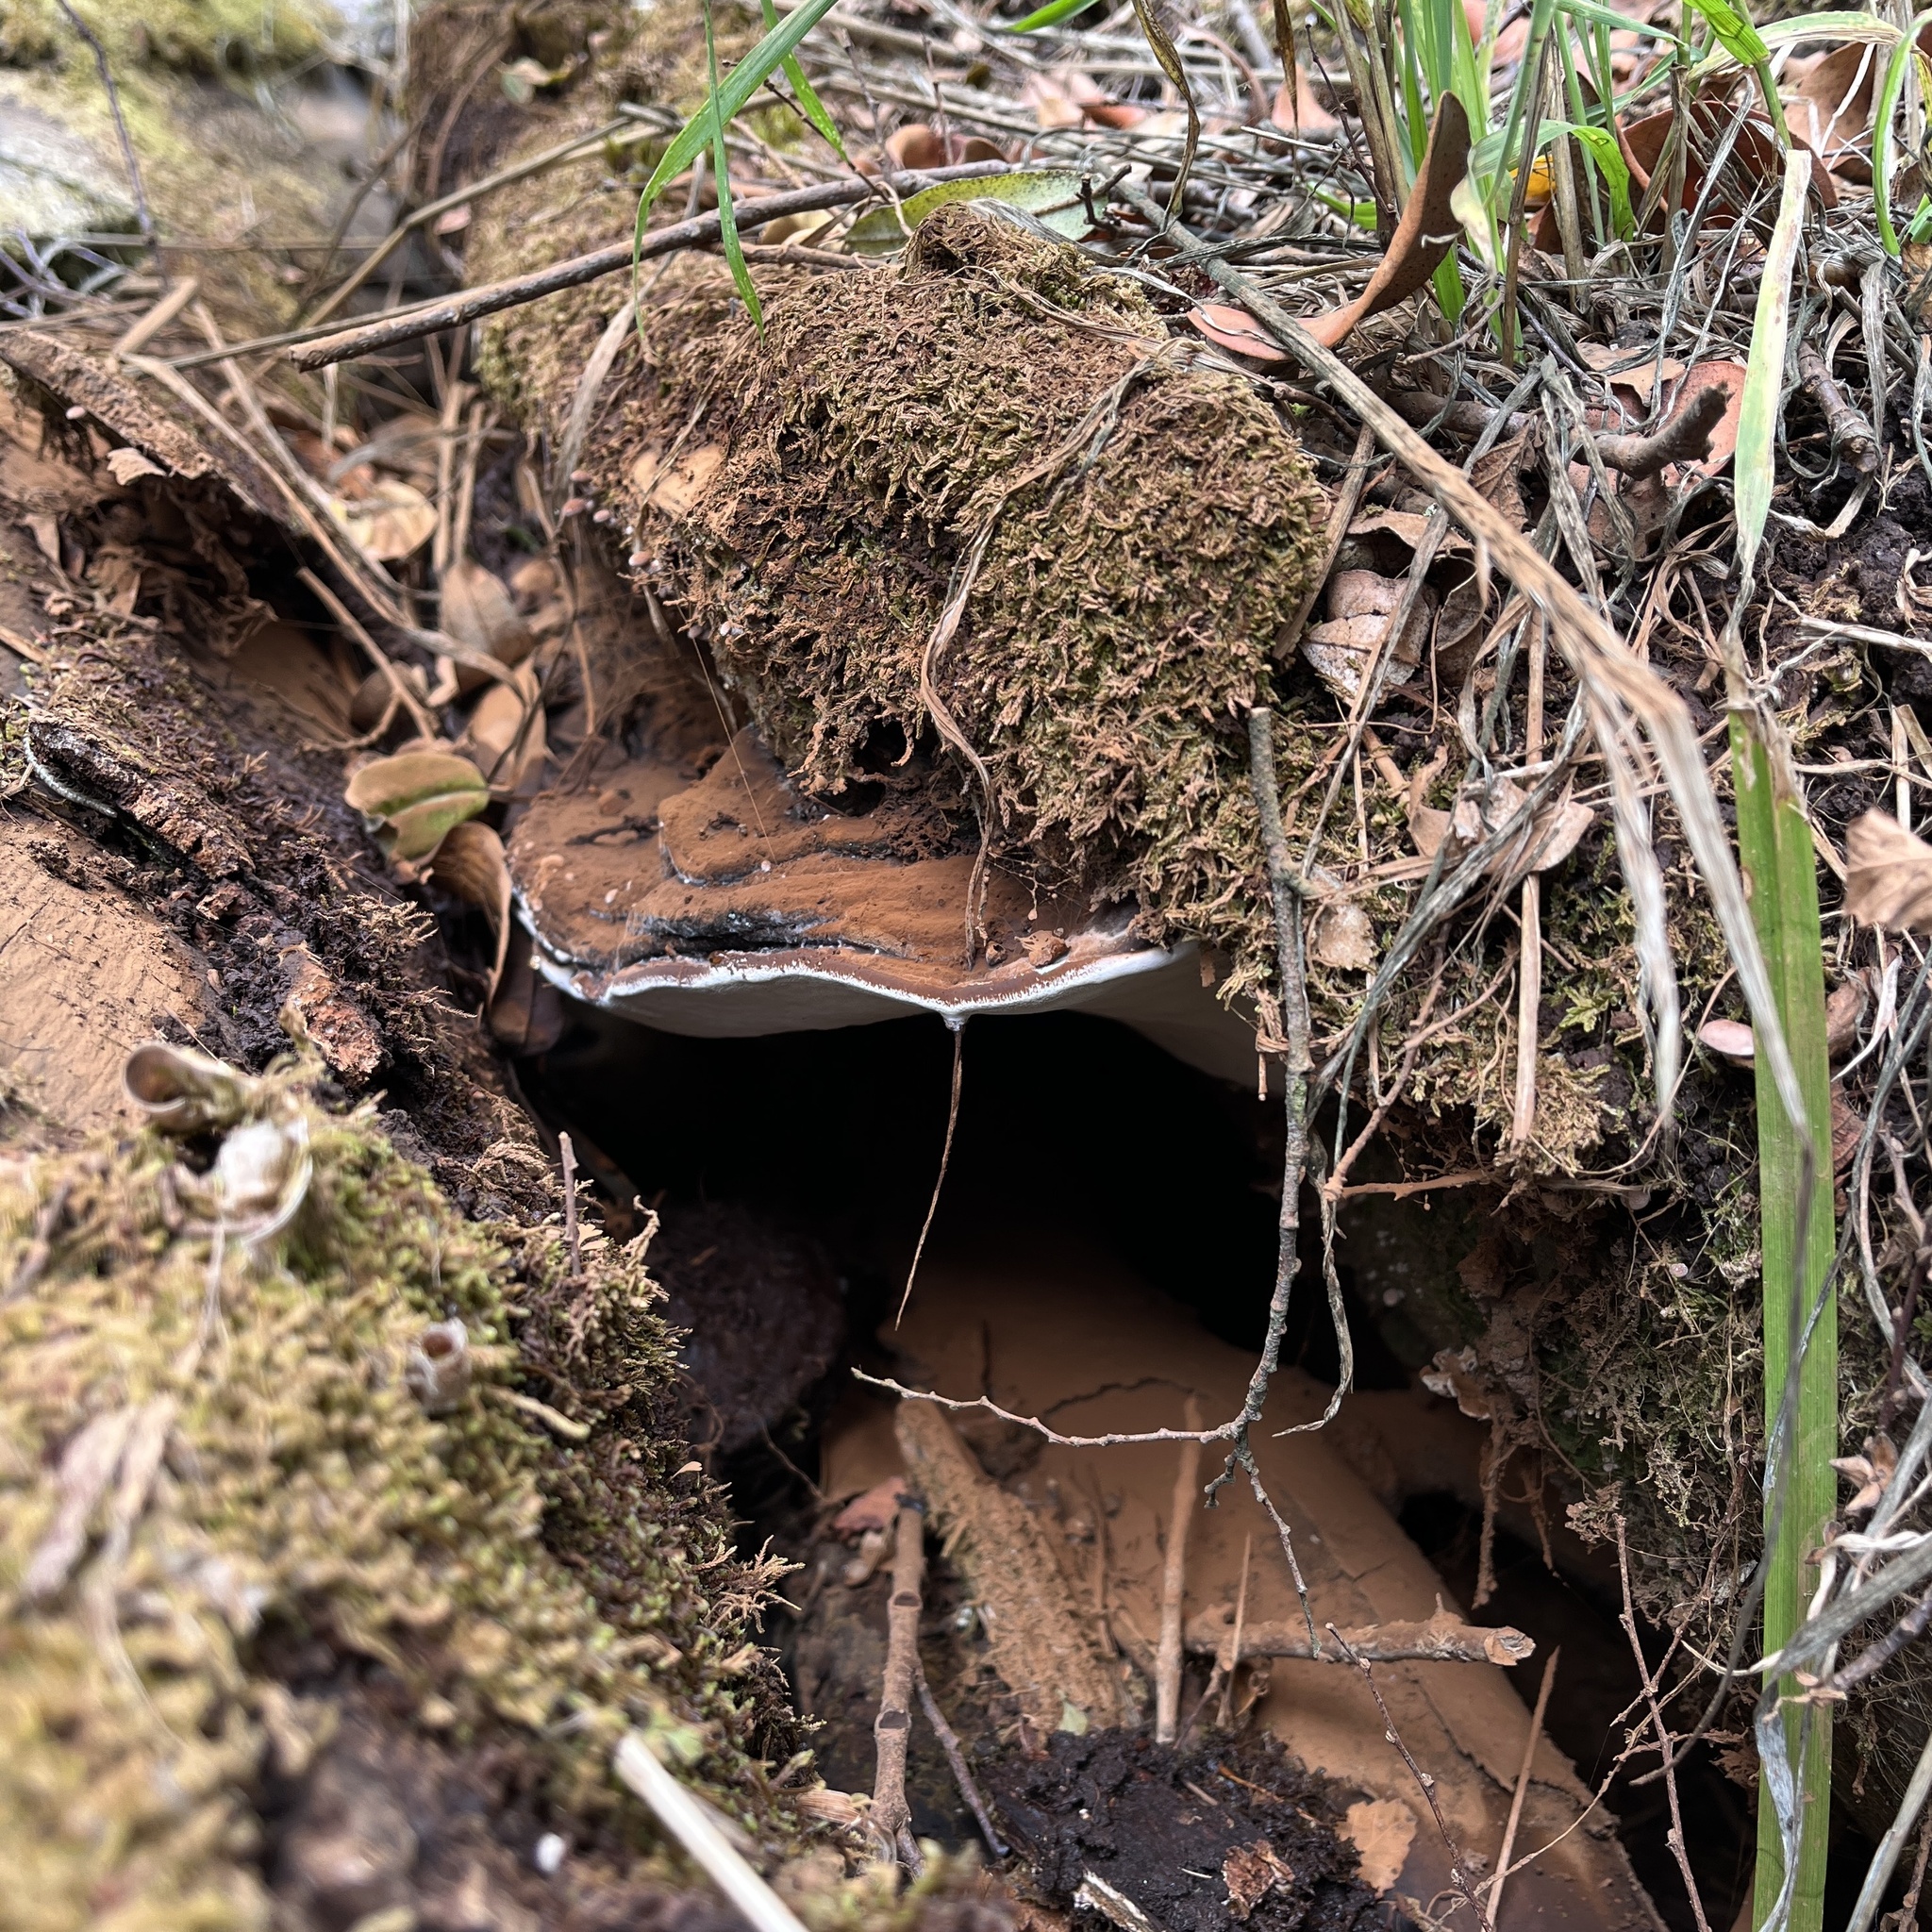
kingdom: Fungi
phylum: Basidiomycota
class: Agaricomycetes
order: Polyporales
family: Polyporaceae
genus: Ganoderma
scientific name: Ganoderma australe
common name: Southern bracket
